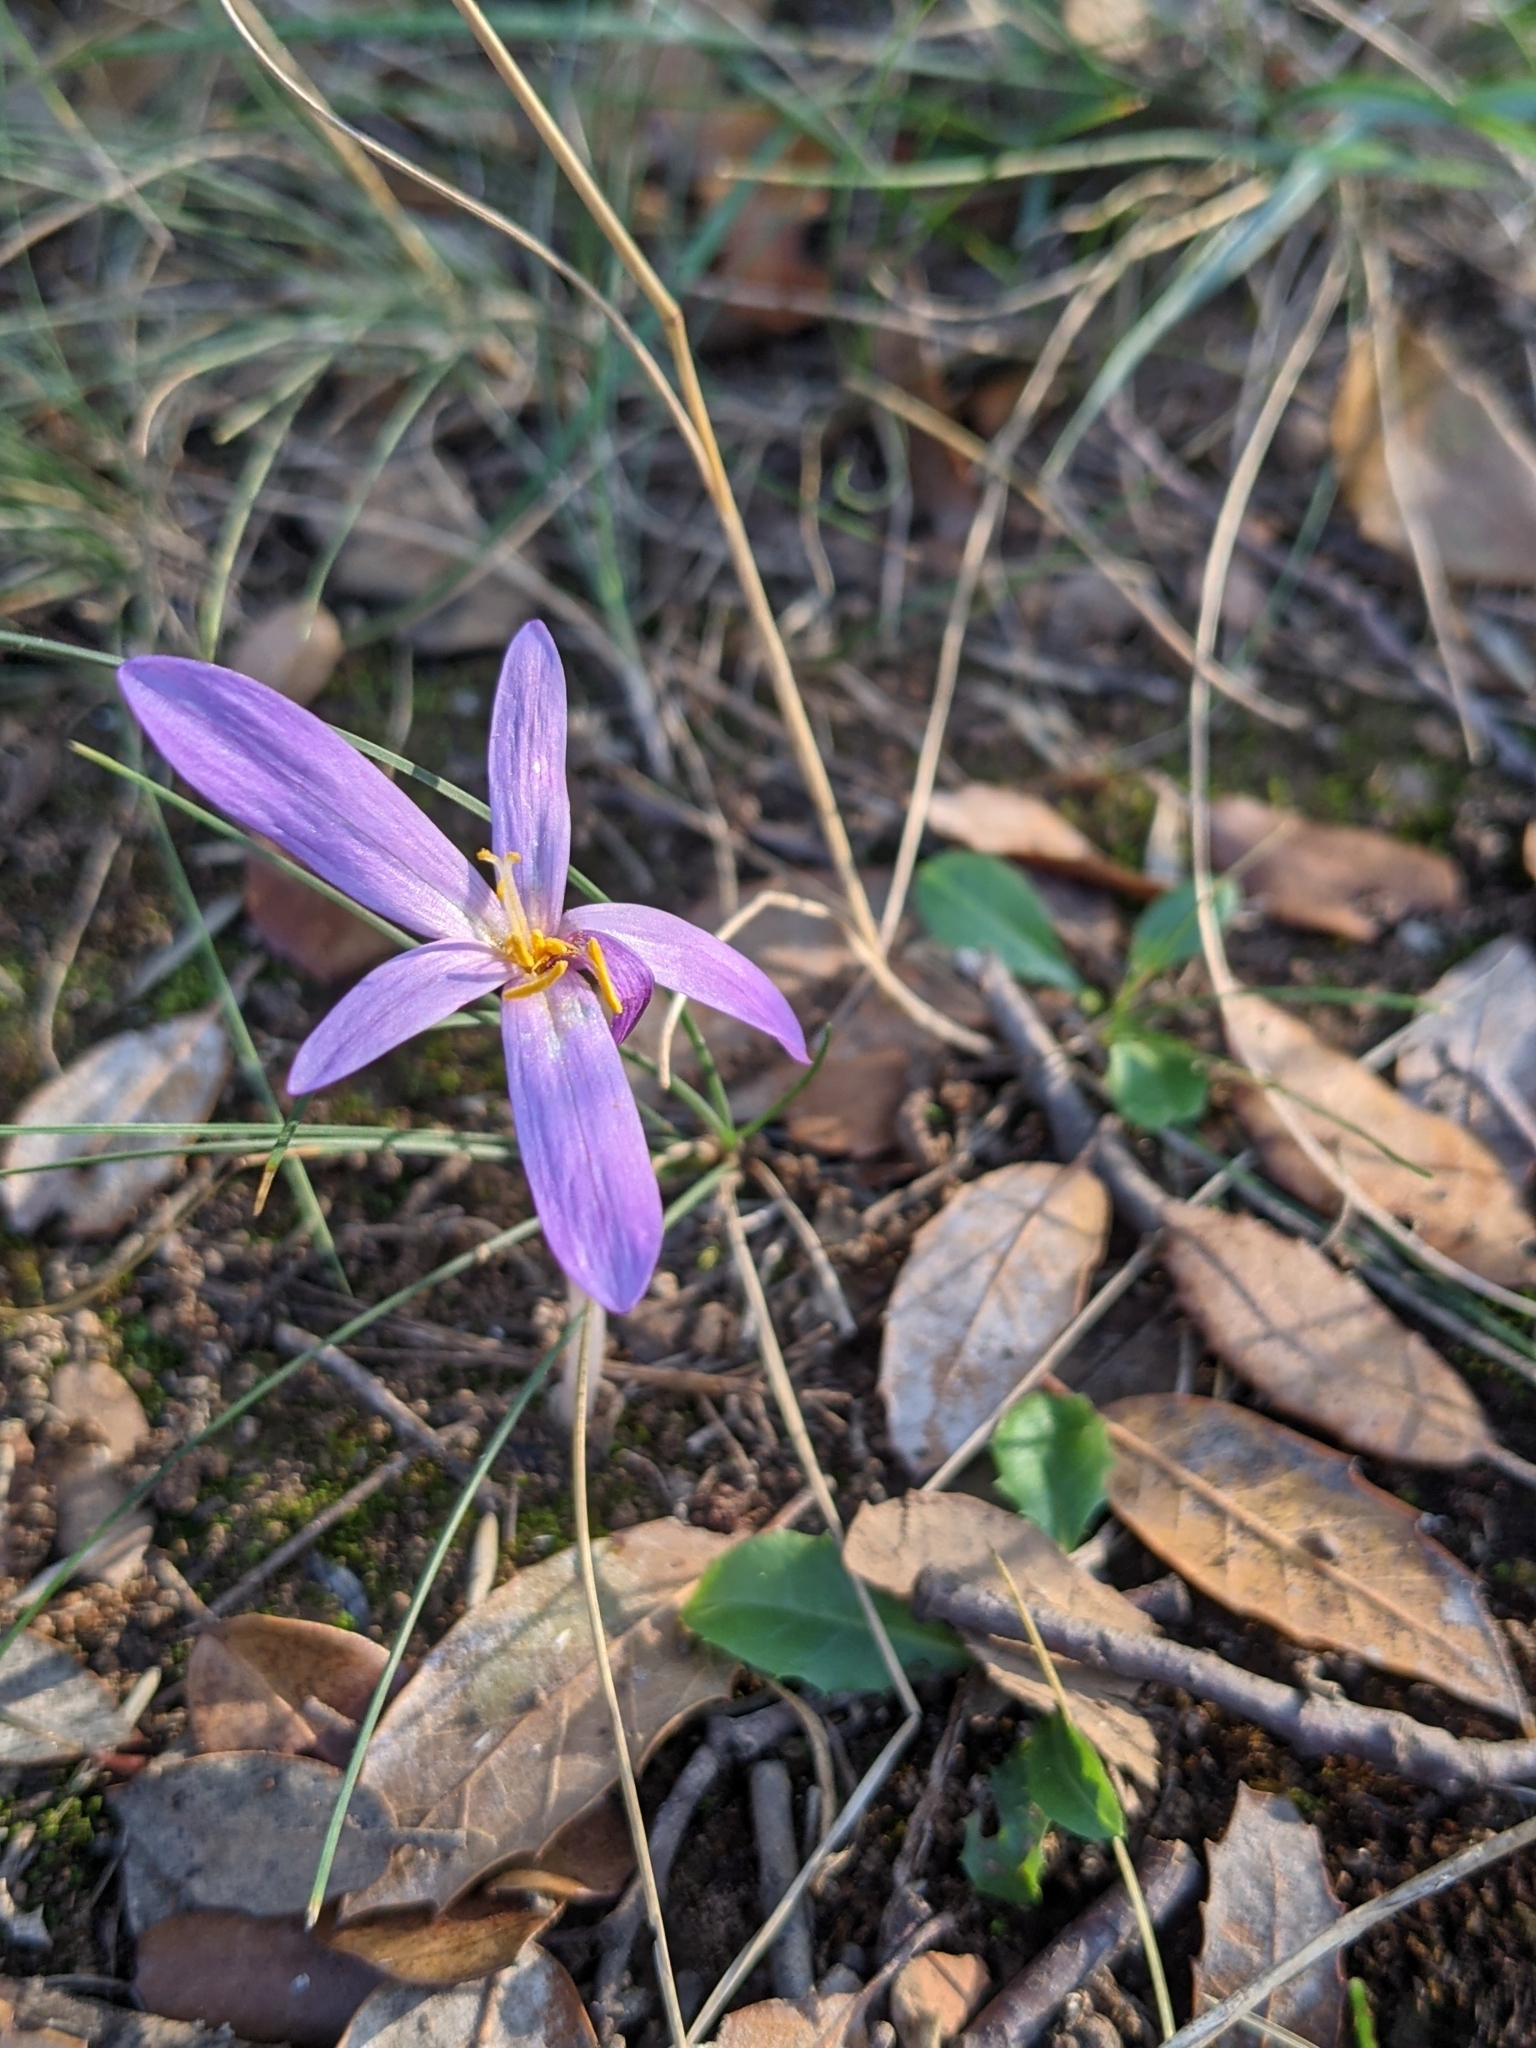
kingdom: Plantae
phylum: Tracheophyta
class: Liliopsida
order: Liliales
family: Colchicaceae
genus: Colchicum
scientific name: Colchicum longifolium
